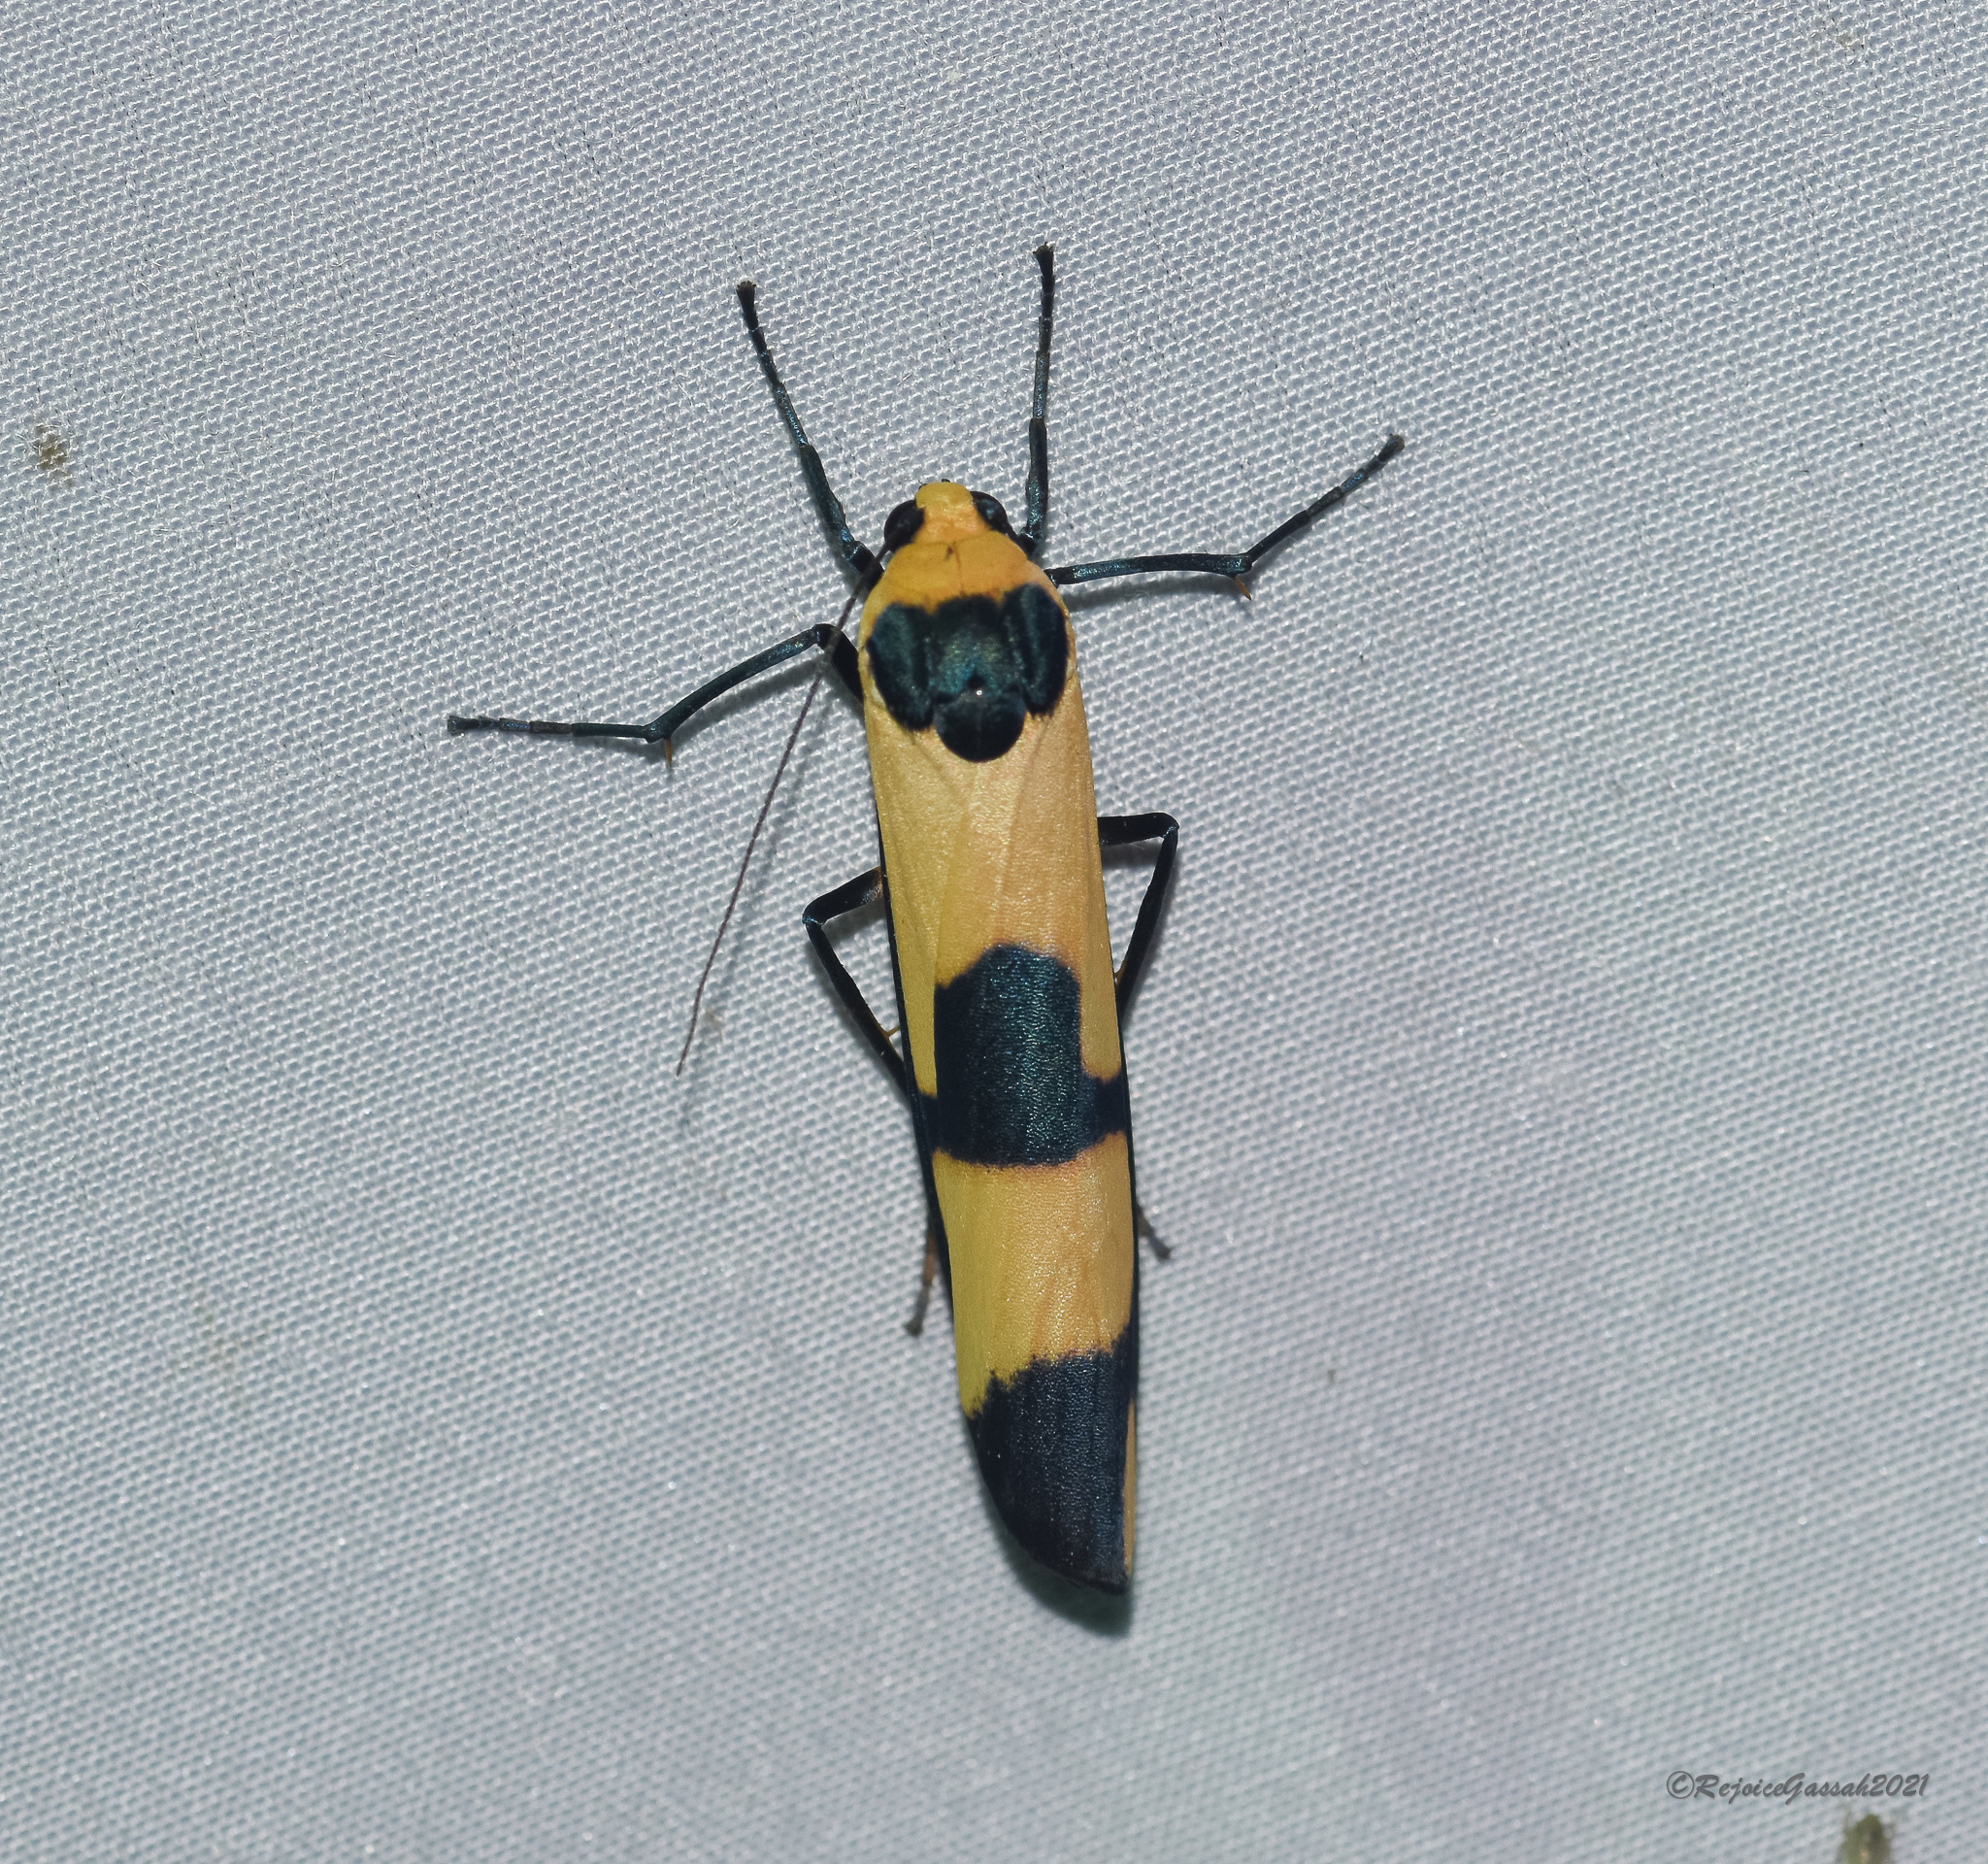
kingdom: Animalia
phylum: Arthropoda
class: Insecta
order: Lepidoptera
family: Erebidae
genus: Oeonistis
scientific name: Oeonistis altica
